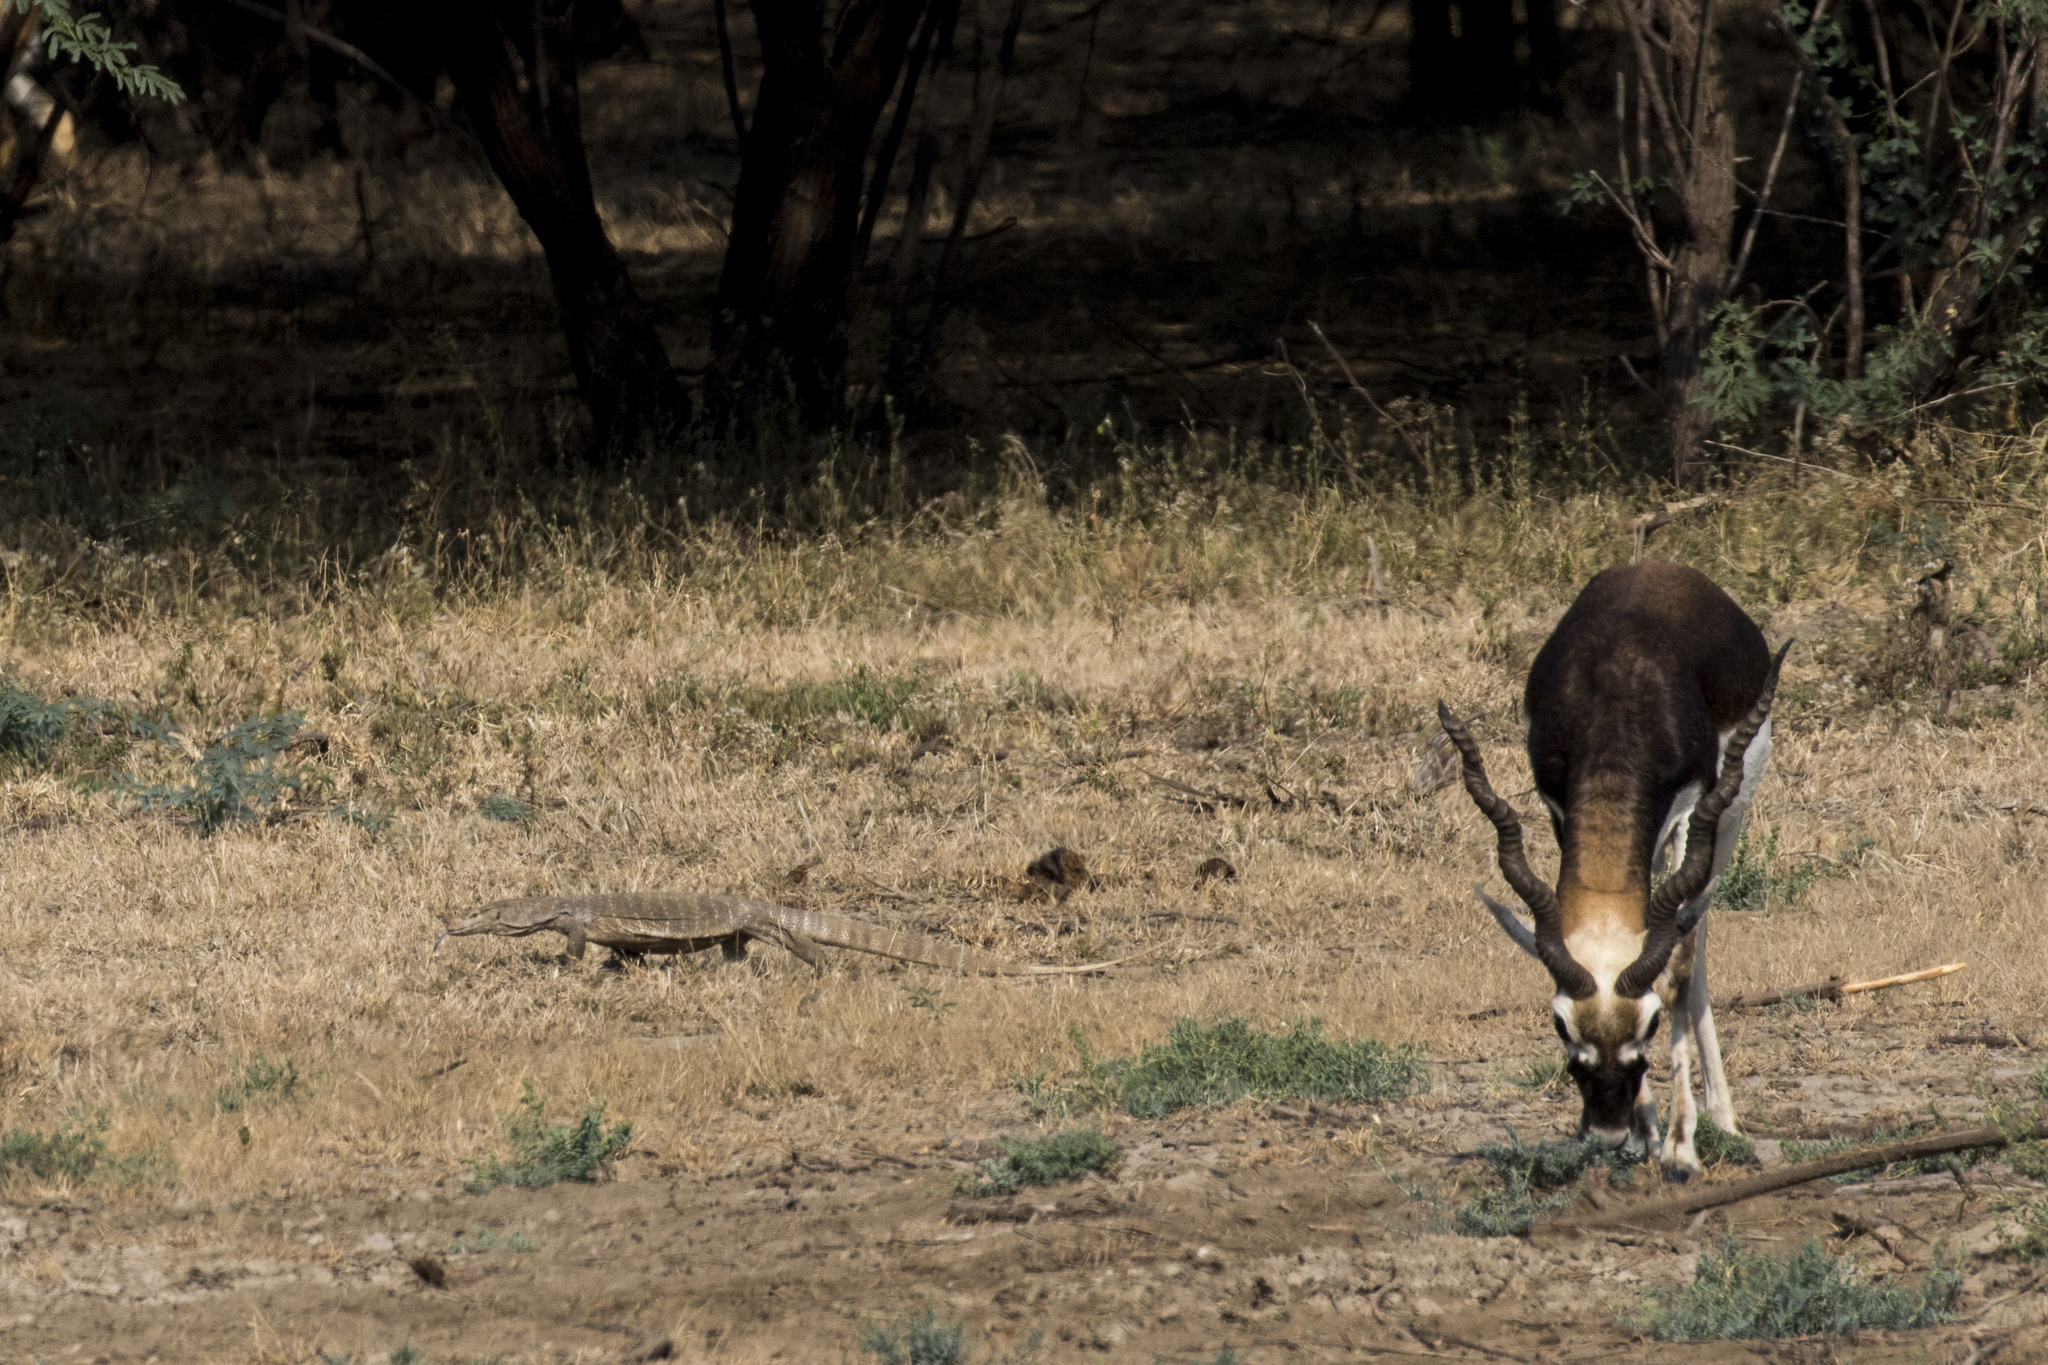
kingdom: Animalia
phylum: Chordata
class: Squamata
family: Varanidae
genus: Varanus
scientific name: Varanus bengalensis
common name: Bengal monitor
